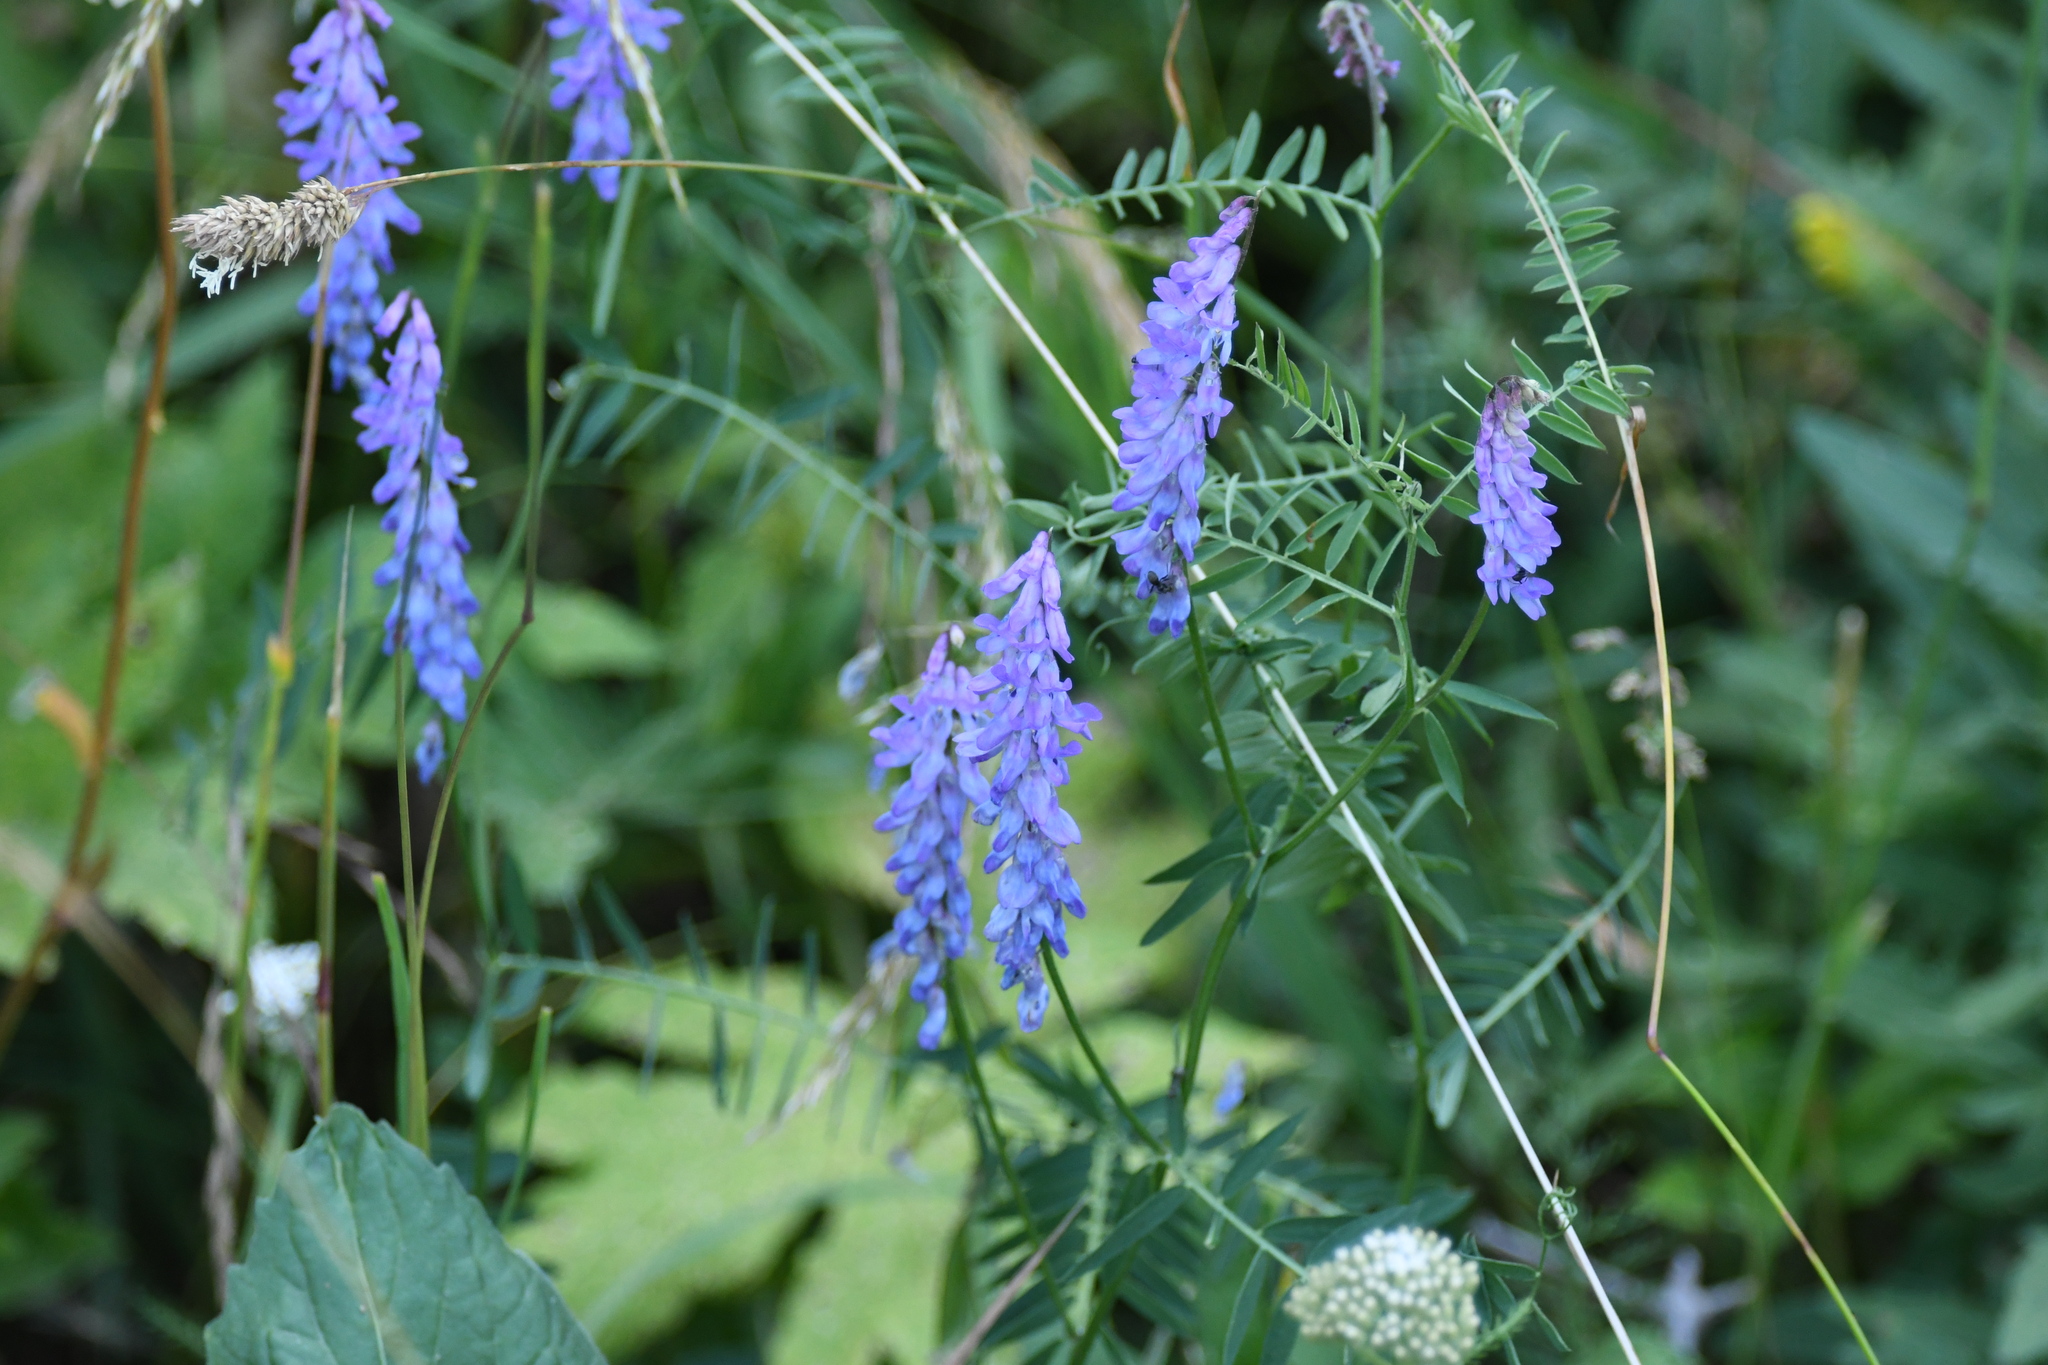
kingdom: Plantae
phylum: Tracheophyta
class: Magnoliopsida
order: Fabales
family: Fabaceae
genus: Vicia
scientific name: Vicia cracca
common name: Bird vetch
